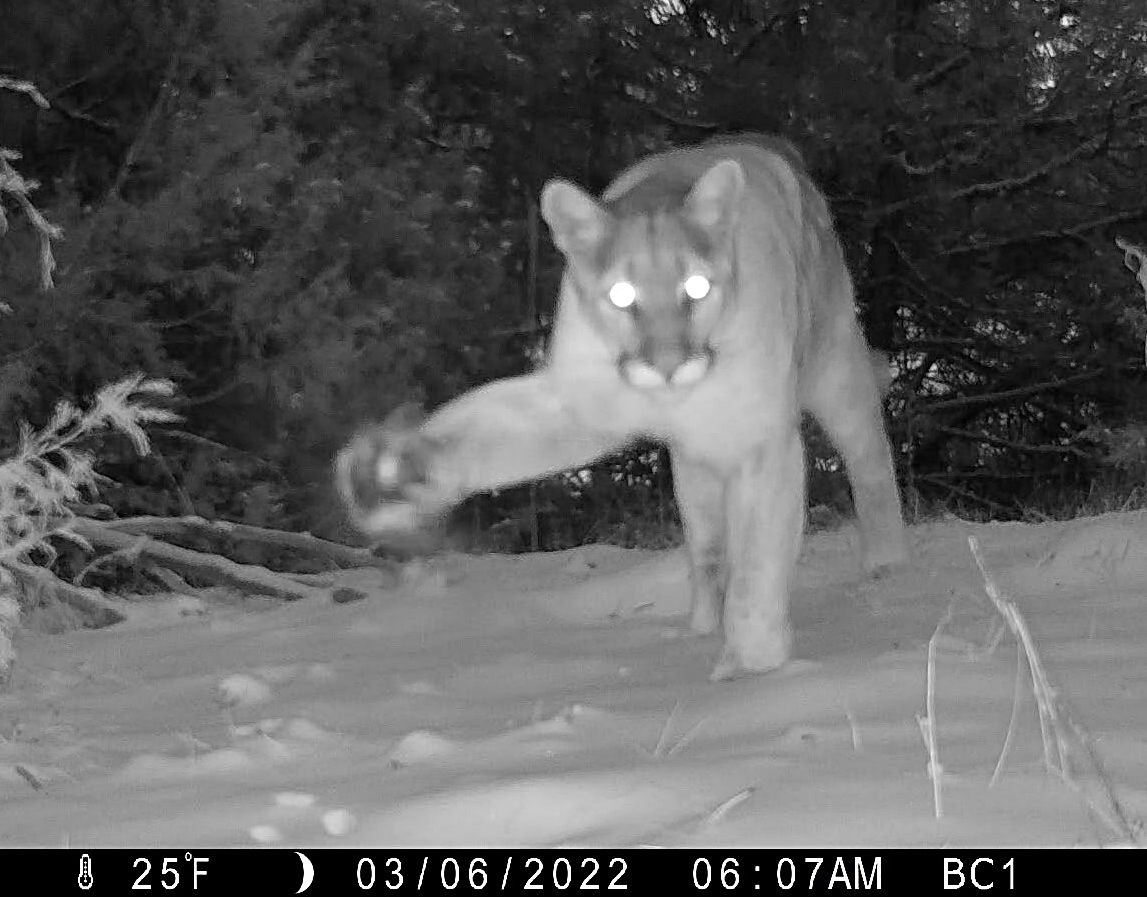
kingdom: Animalia
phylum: Chordata
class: Mammalia
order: Carnivora
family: Felidae
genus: Puma
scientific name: Puma concolor
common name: Puma
